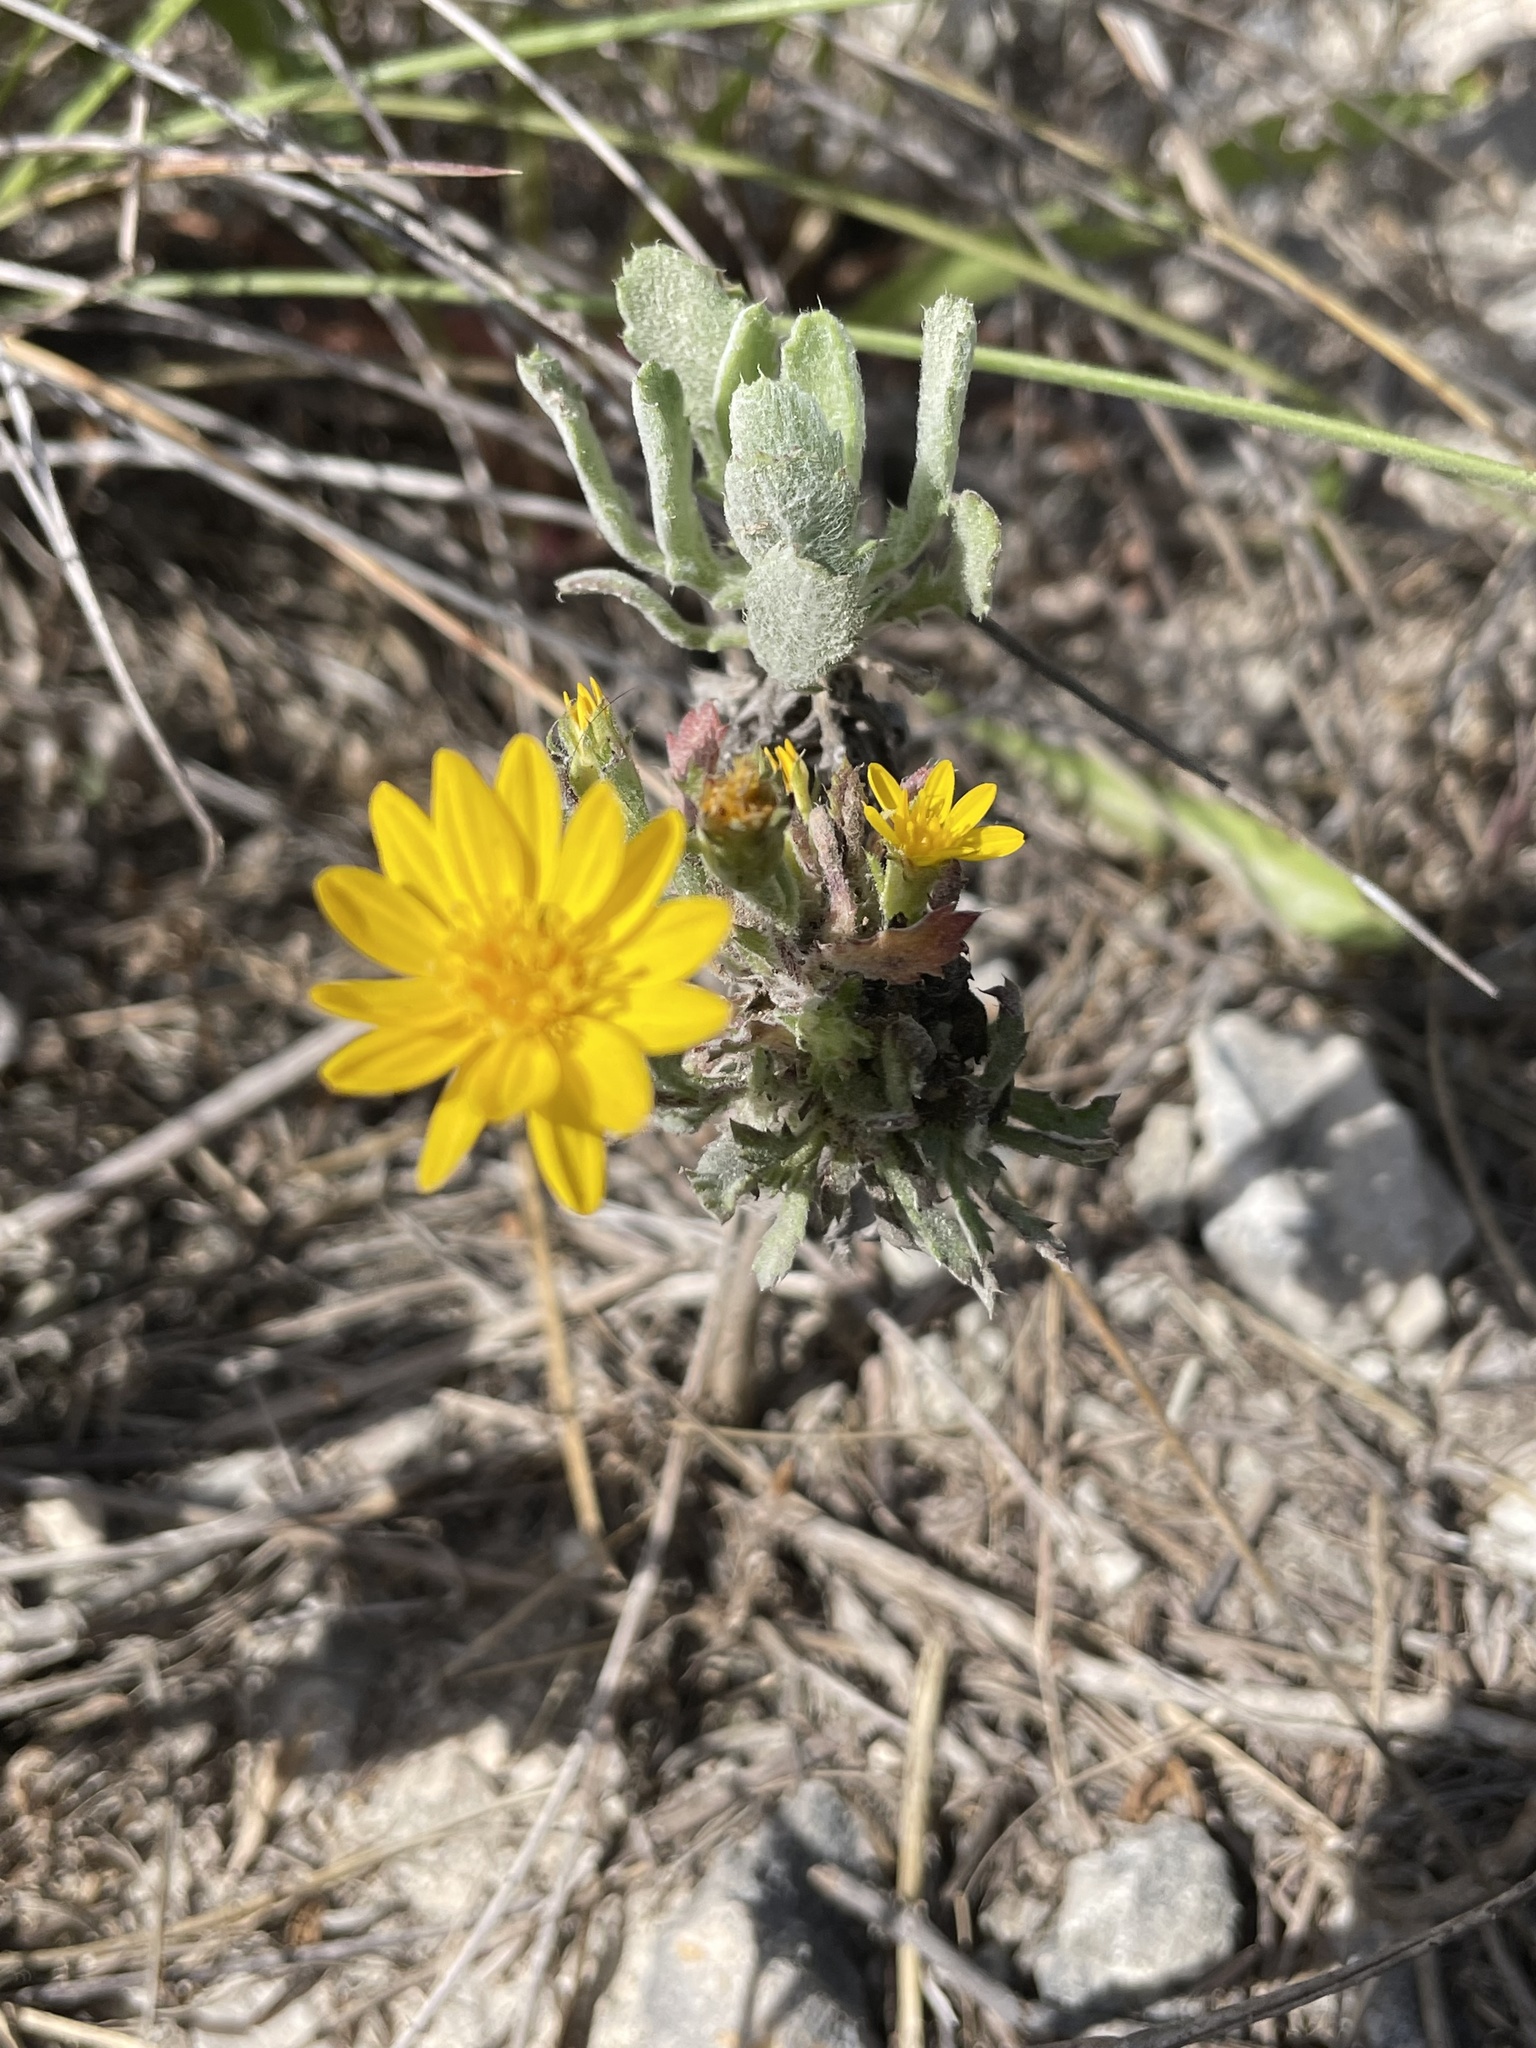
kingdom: Plantae
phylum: Tracheophyta
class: Magnoliopsida
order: Asterales
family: Asteraceae
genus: Rayjacksonia
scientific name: Rayjacksonia phyllocephala
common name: Gulf coast camphor daisy
